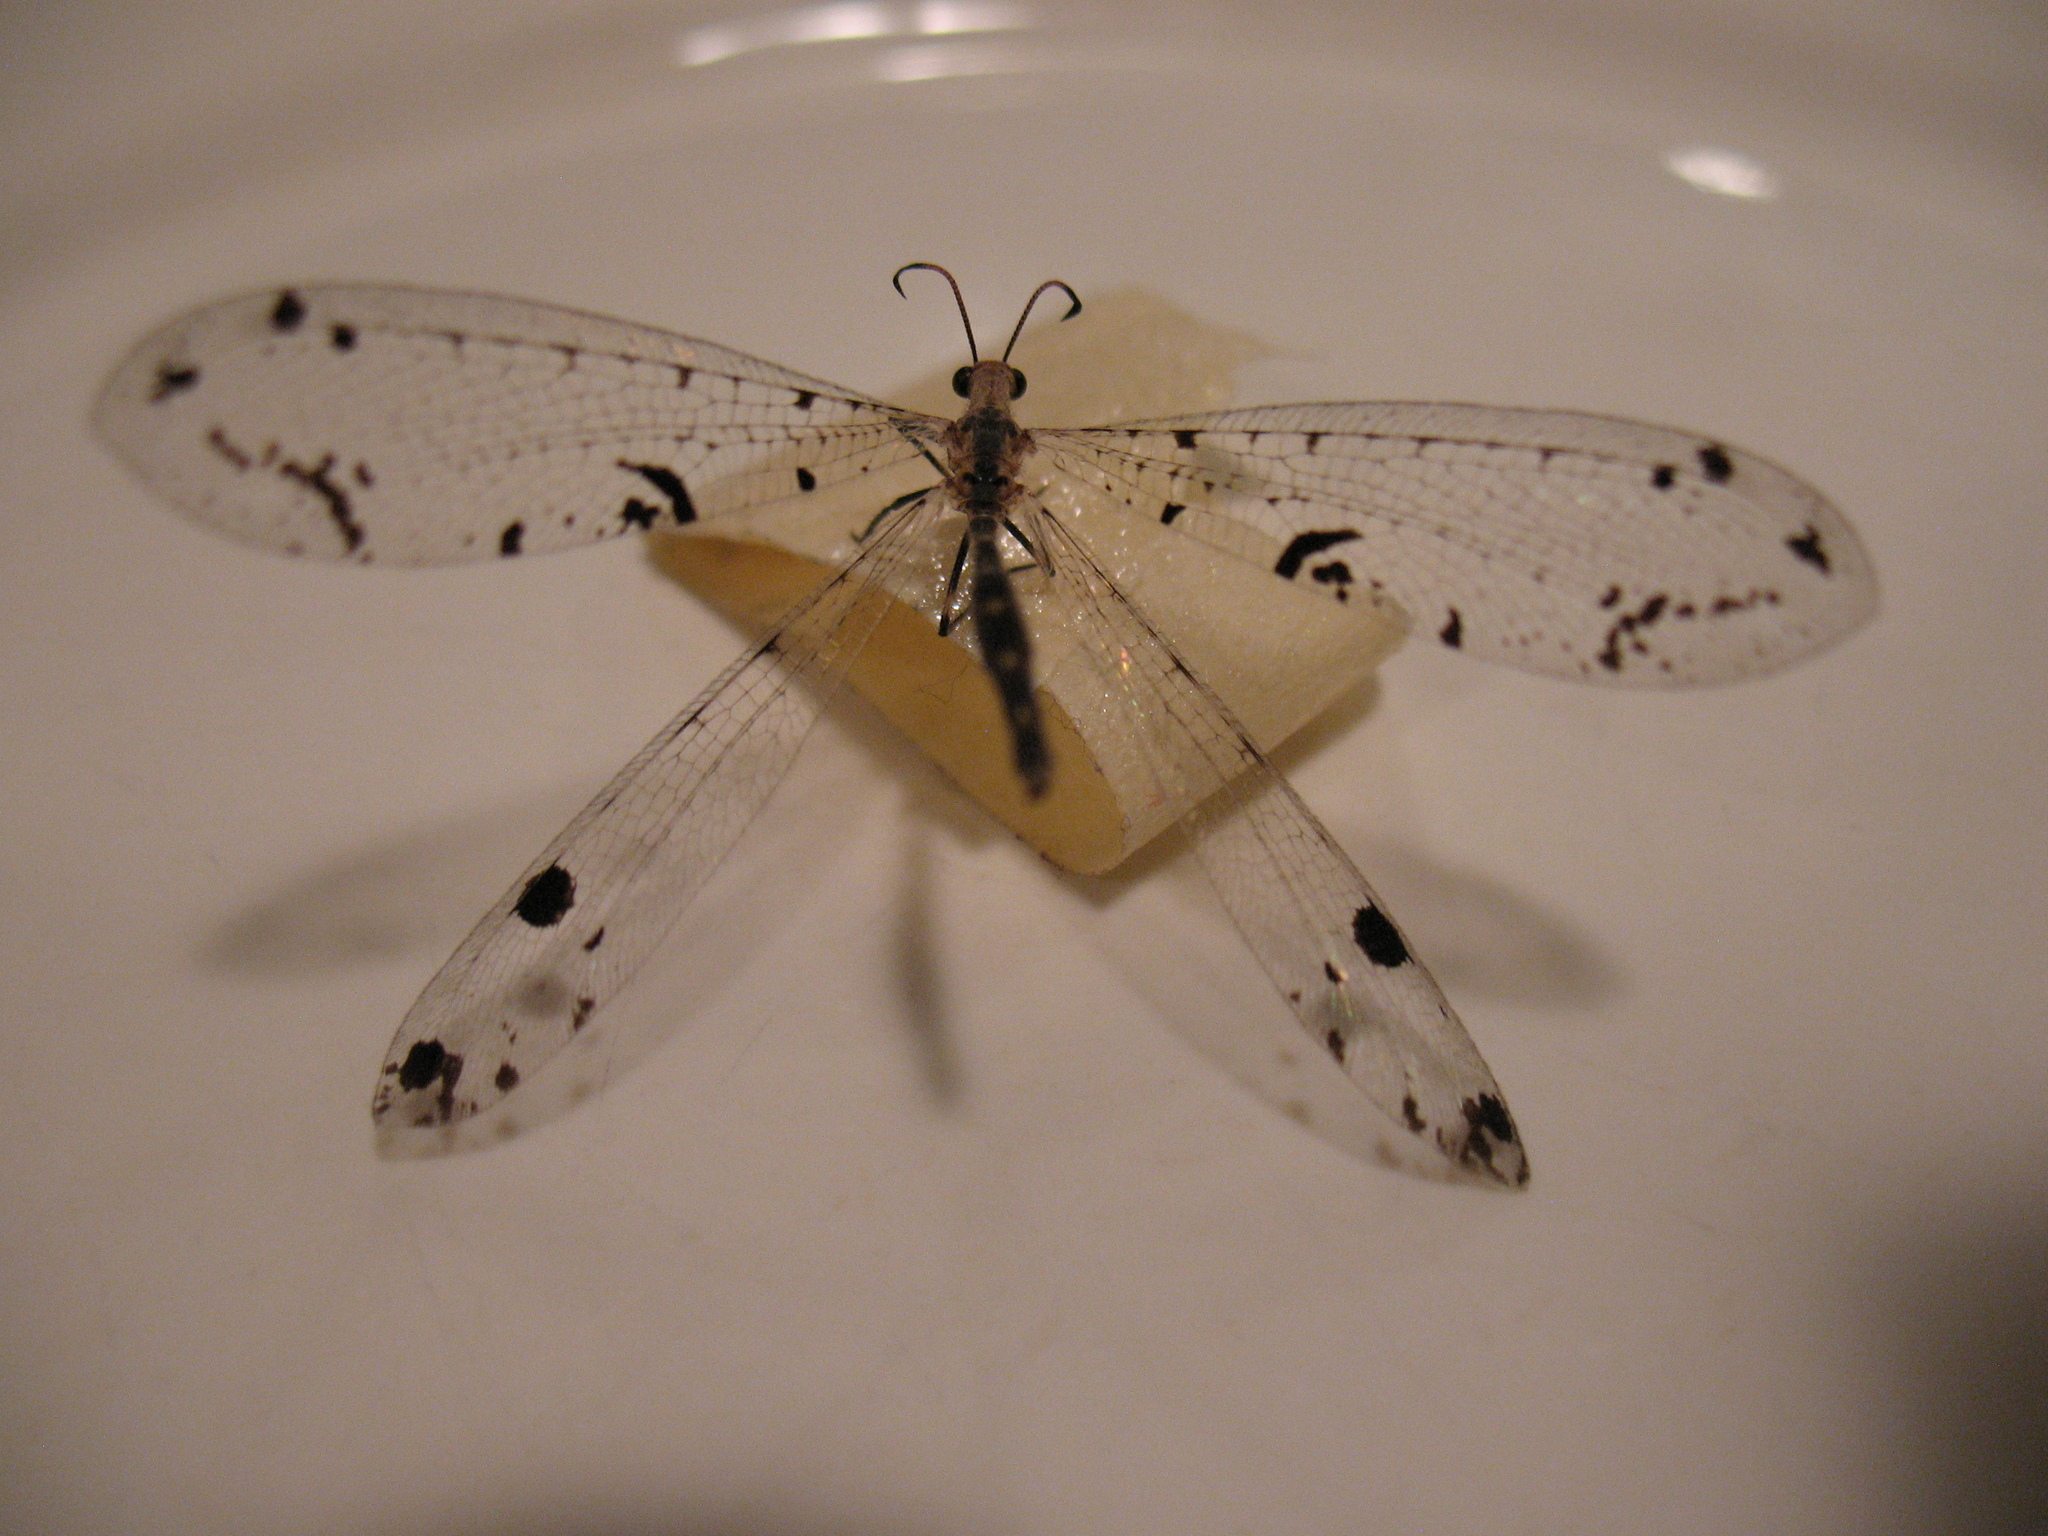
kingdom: Animalia
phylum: Arthropoda
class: Insecta
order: Neuroptera
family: Myrmeleontidae
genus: Dendroleon
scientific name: Dendroleon obsoletus
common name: Eastern spotted-winged antlion
